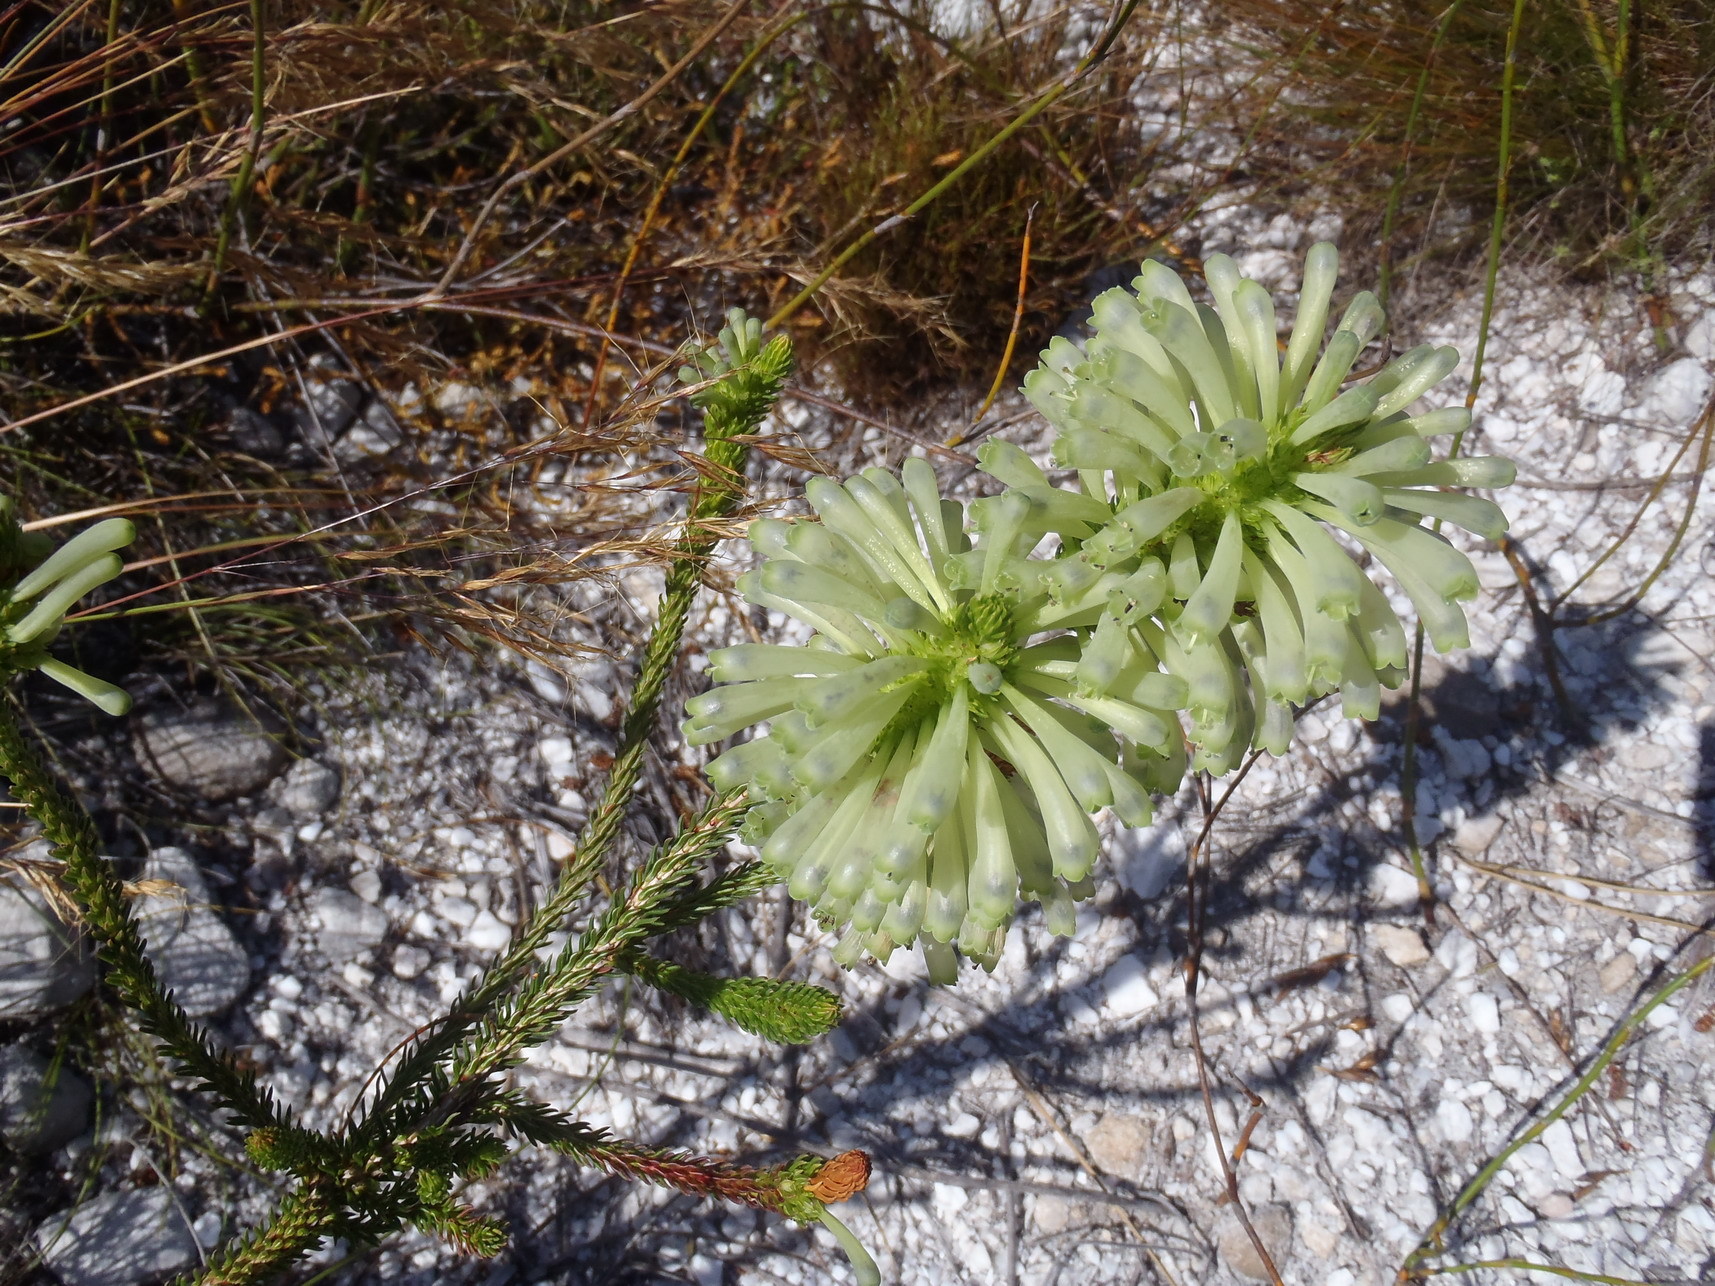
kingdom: Plantae
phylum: Tracheophyta
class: Magnoliopsida
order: Ericales
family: Ericaceae
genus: Erica
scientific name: Erica sessiliflora
